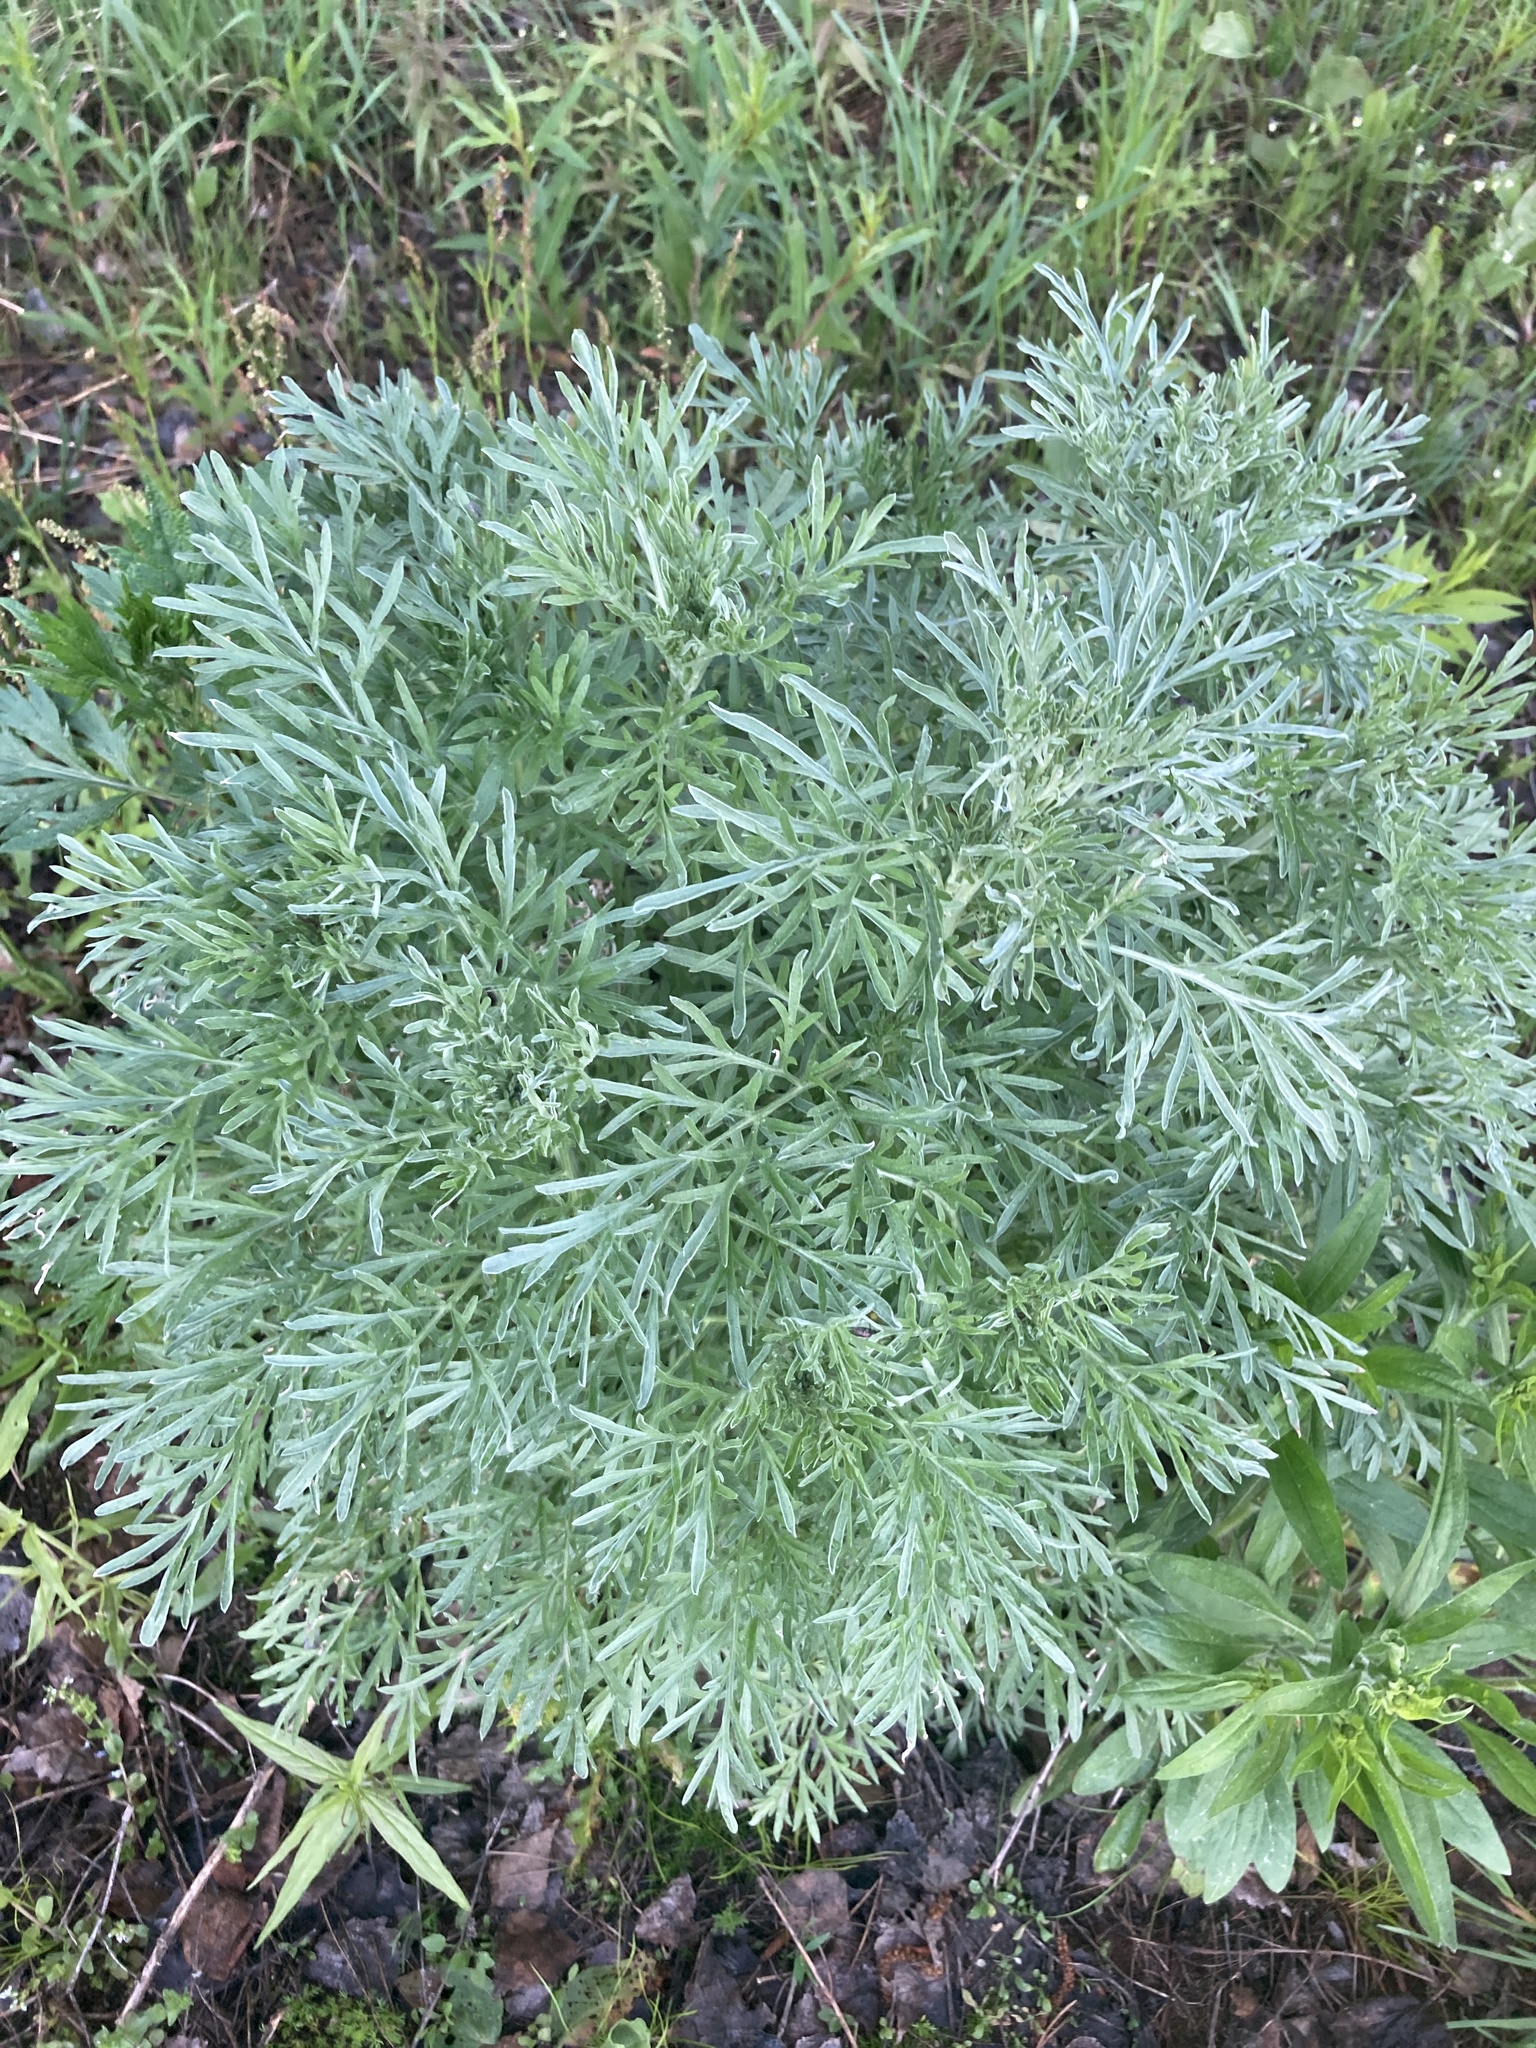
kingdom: Plantae
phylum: Tracheophyta
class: Magnoliopsida
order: Asterales
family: Asteraceae
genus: Artemisia
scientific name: Artemisia absinthium
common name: Wormwood
